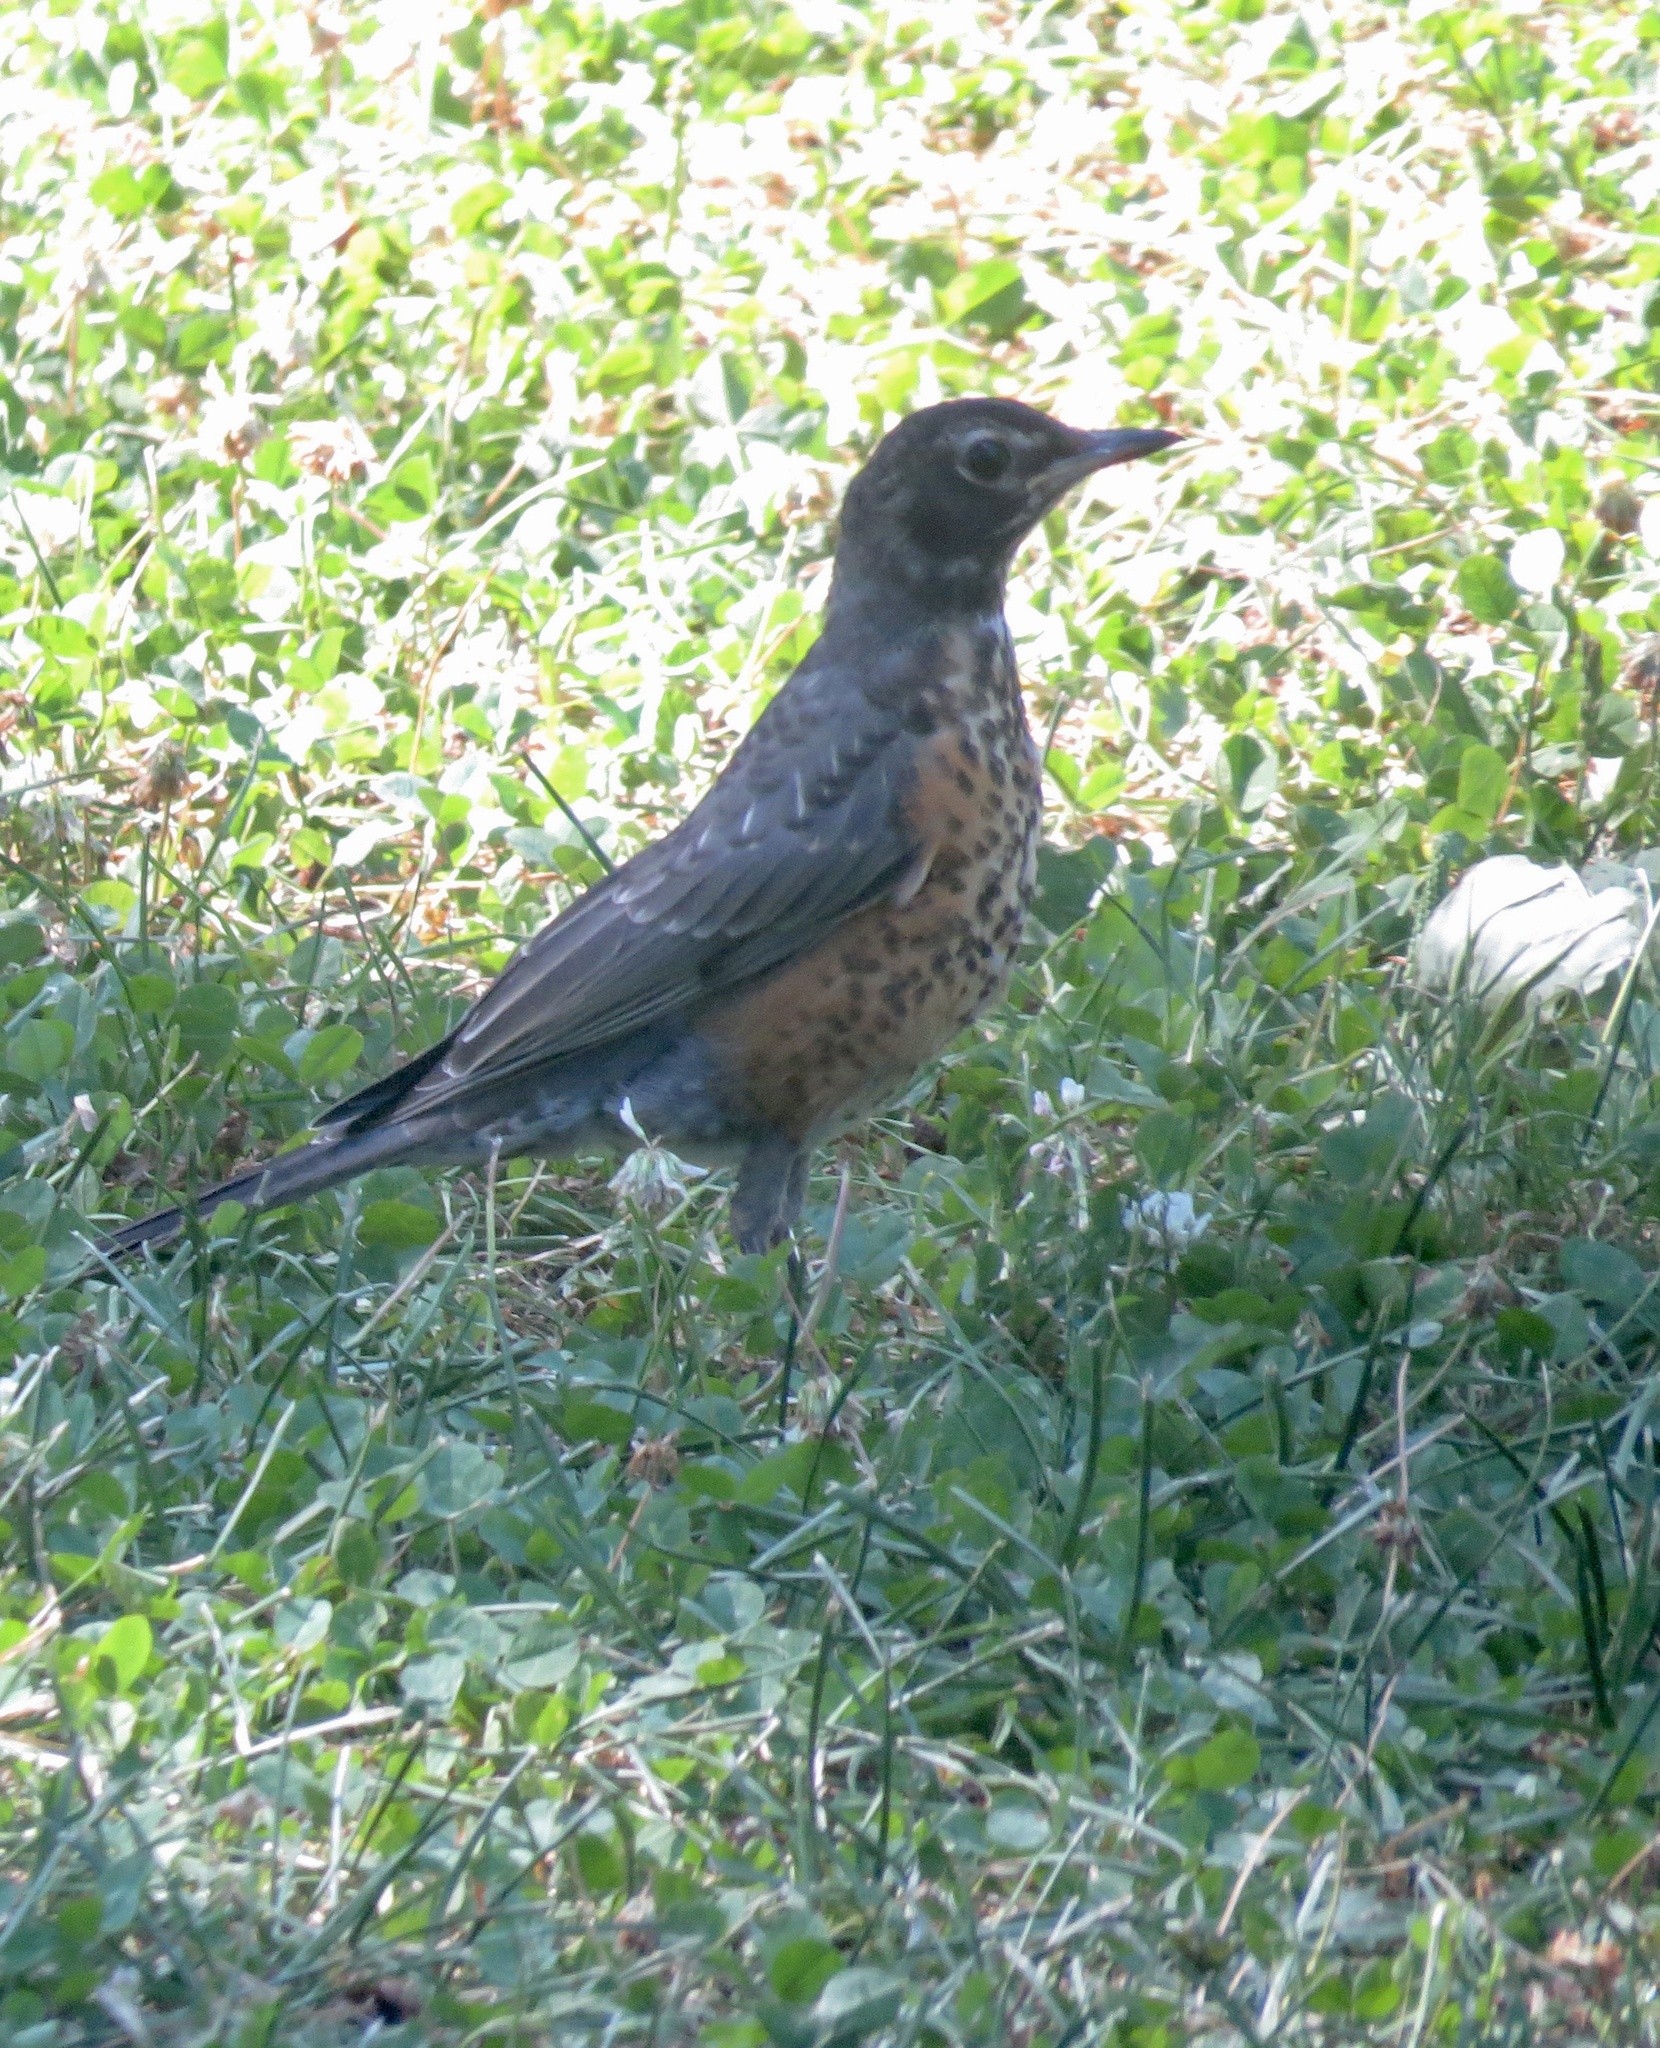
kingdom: Animalia
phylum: Chordata
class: Aves
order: Passeriformes
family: Turdidae
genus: Turdus
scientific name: Turdus migratorius
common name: American robin
